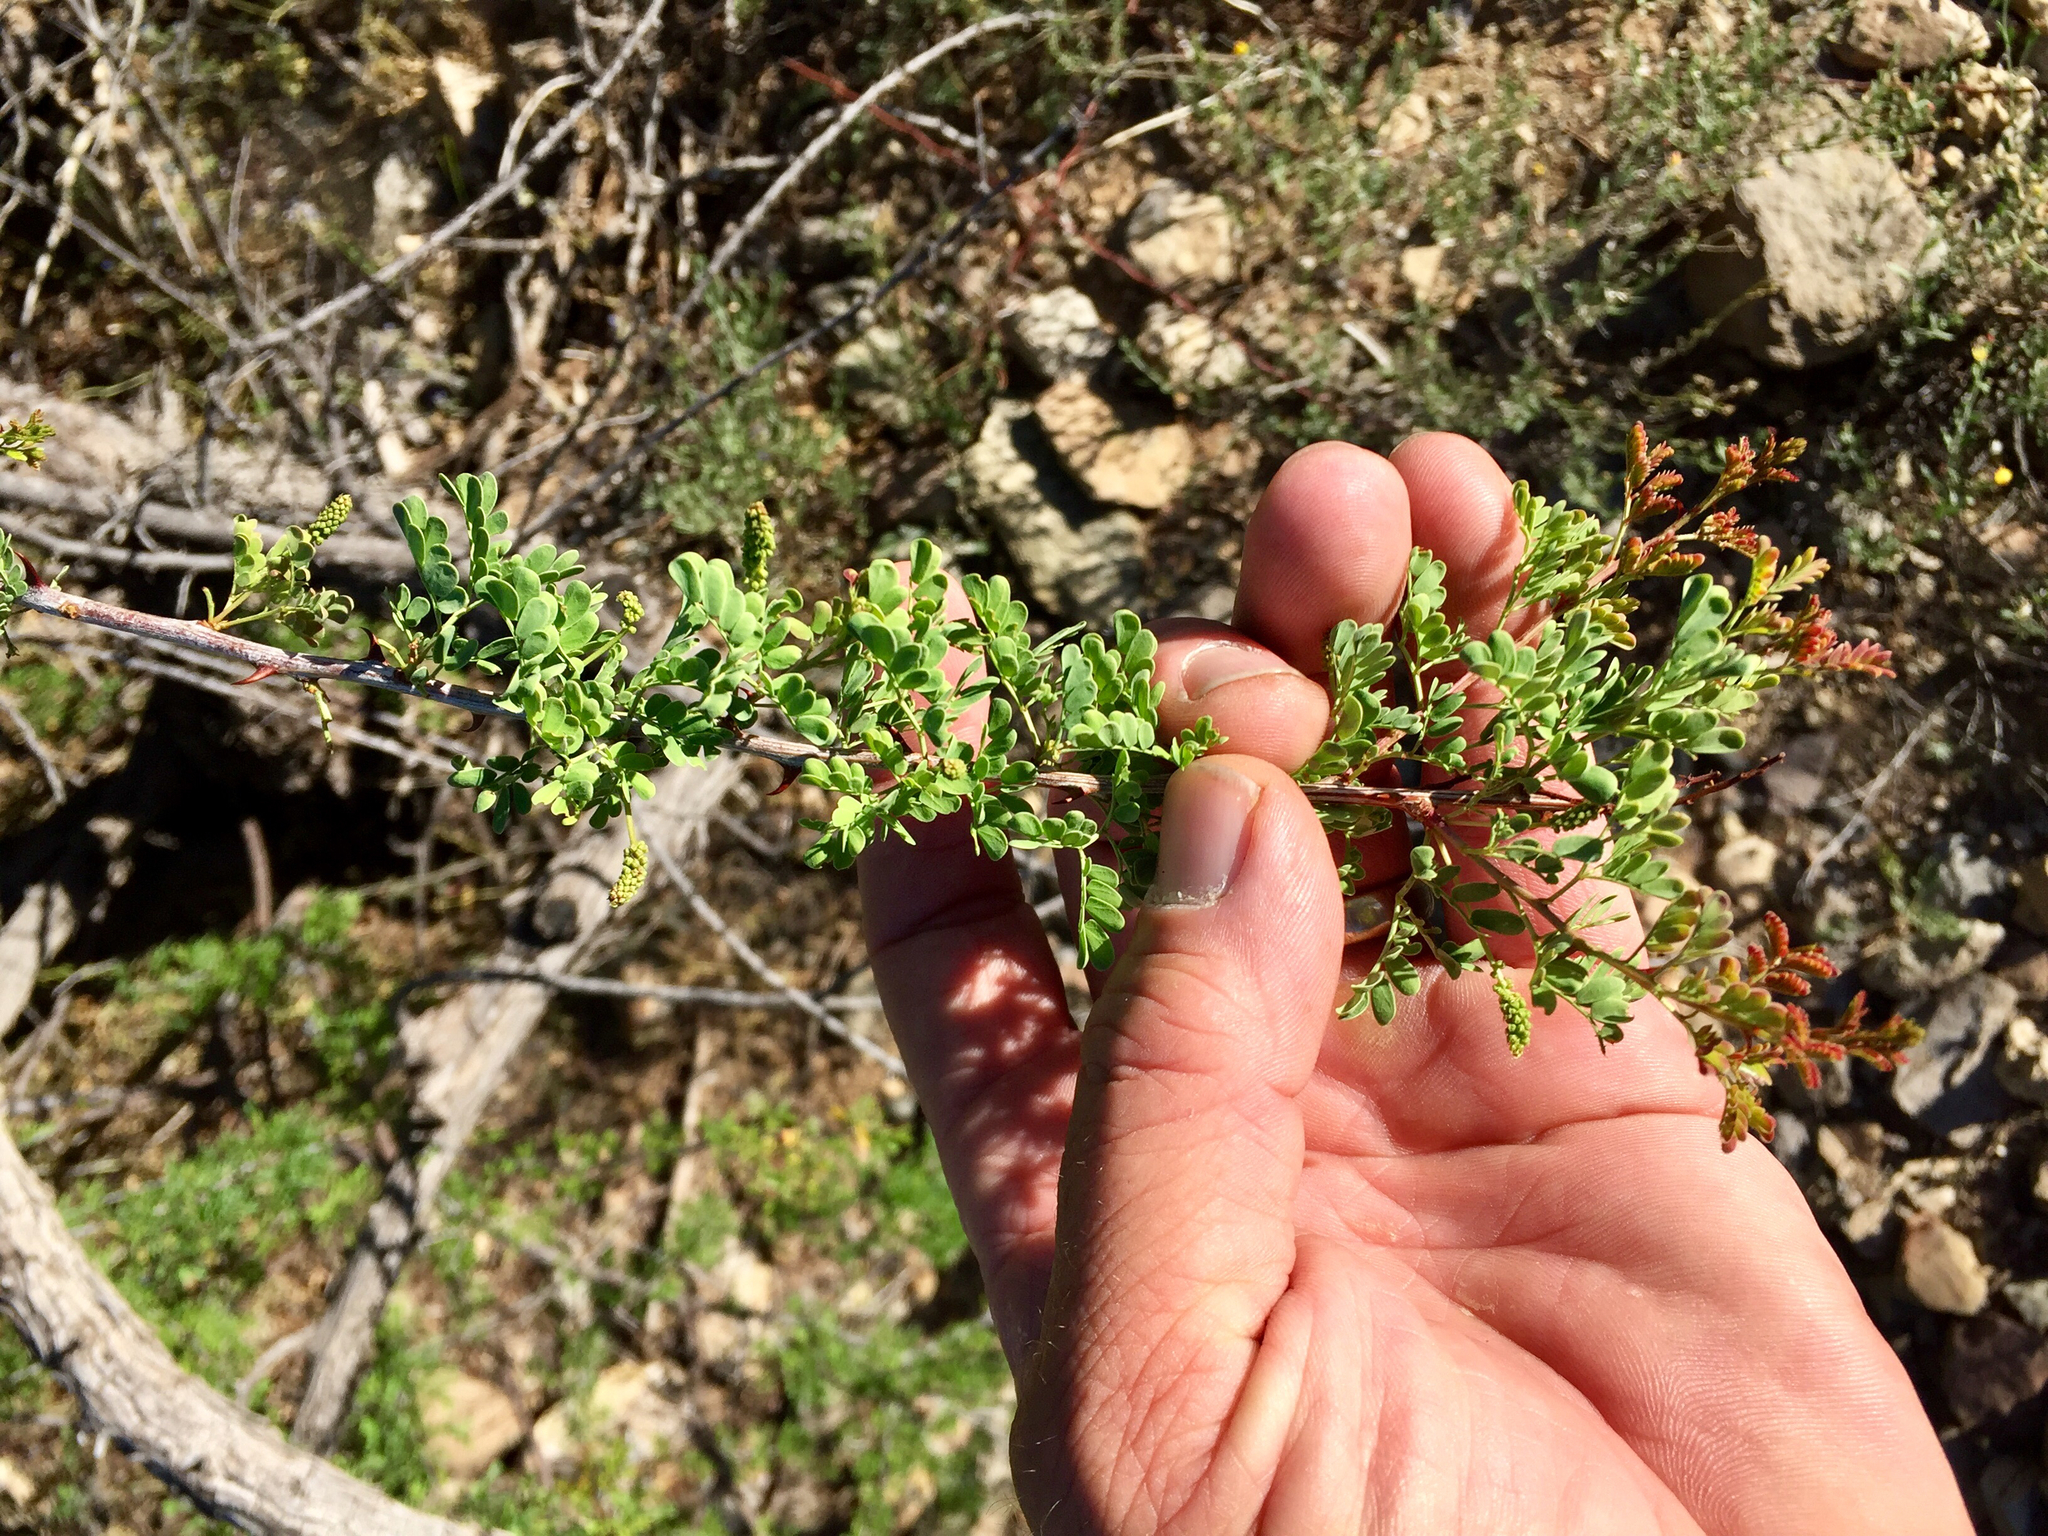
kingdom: Plantae
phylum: Tracheophyta
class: Magnoliopsida
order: Fabales
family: Fabaceae
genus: Senegalia
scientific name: Senegalia greggii
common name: Texas-mimosa
